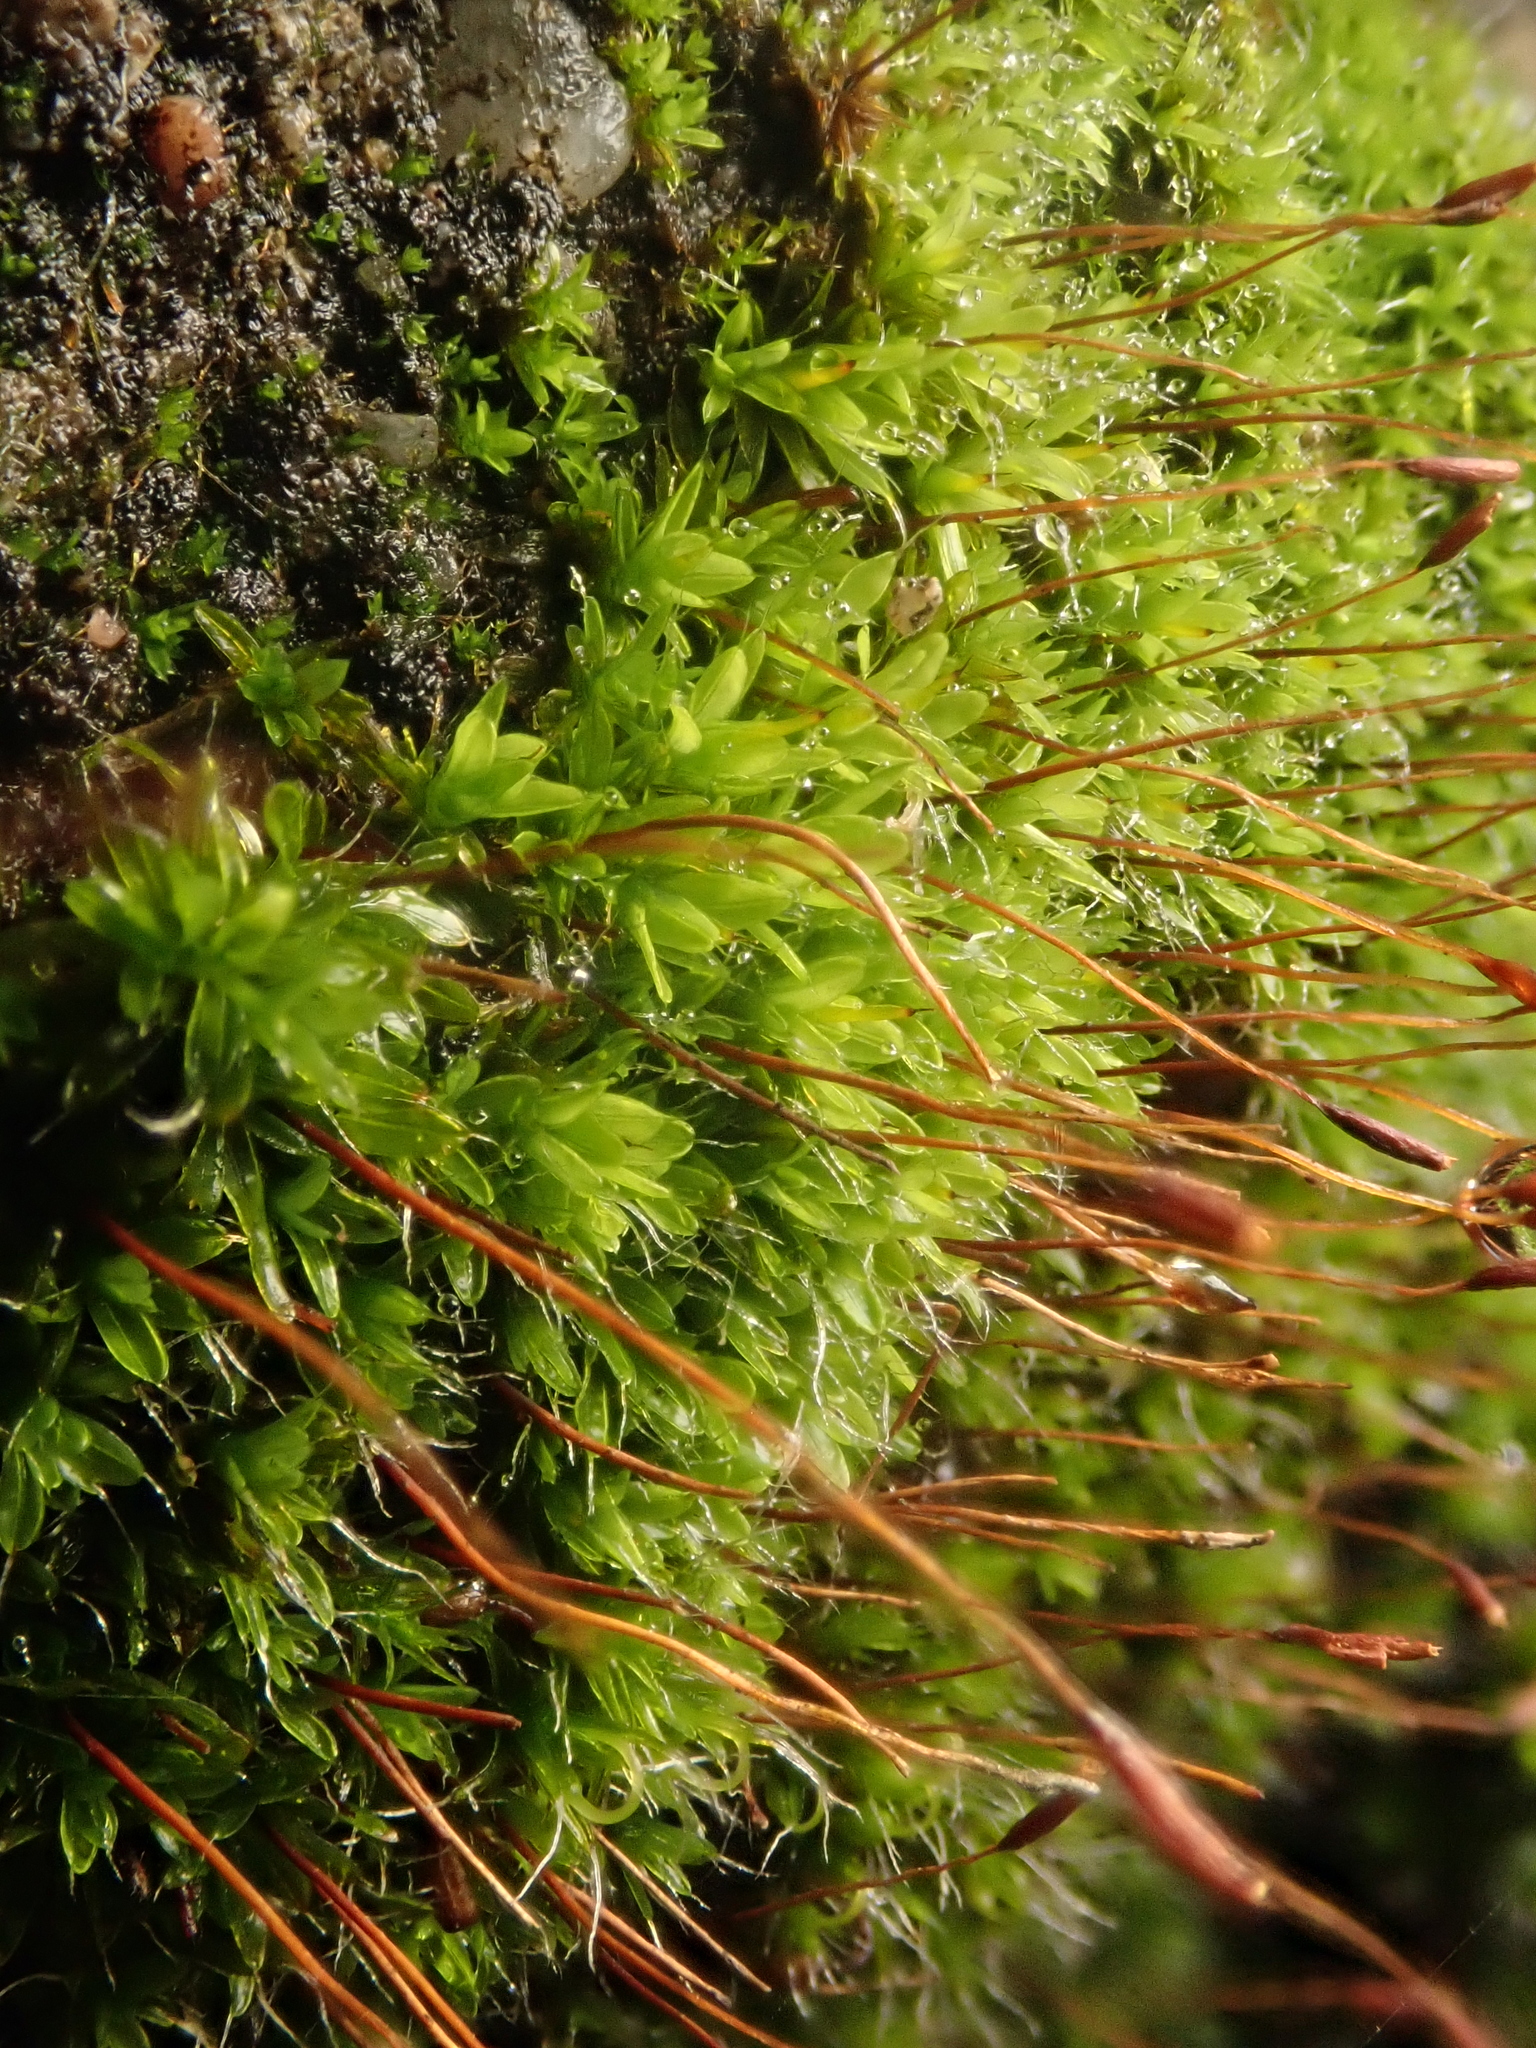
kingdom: Plantae
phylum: Bryophyta
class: Bryopsida
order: Pottiales
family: Pottiaceae
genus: Tortula
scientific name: Tortula muralis
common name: Wall screw-moss
